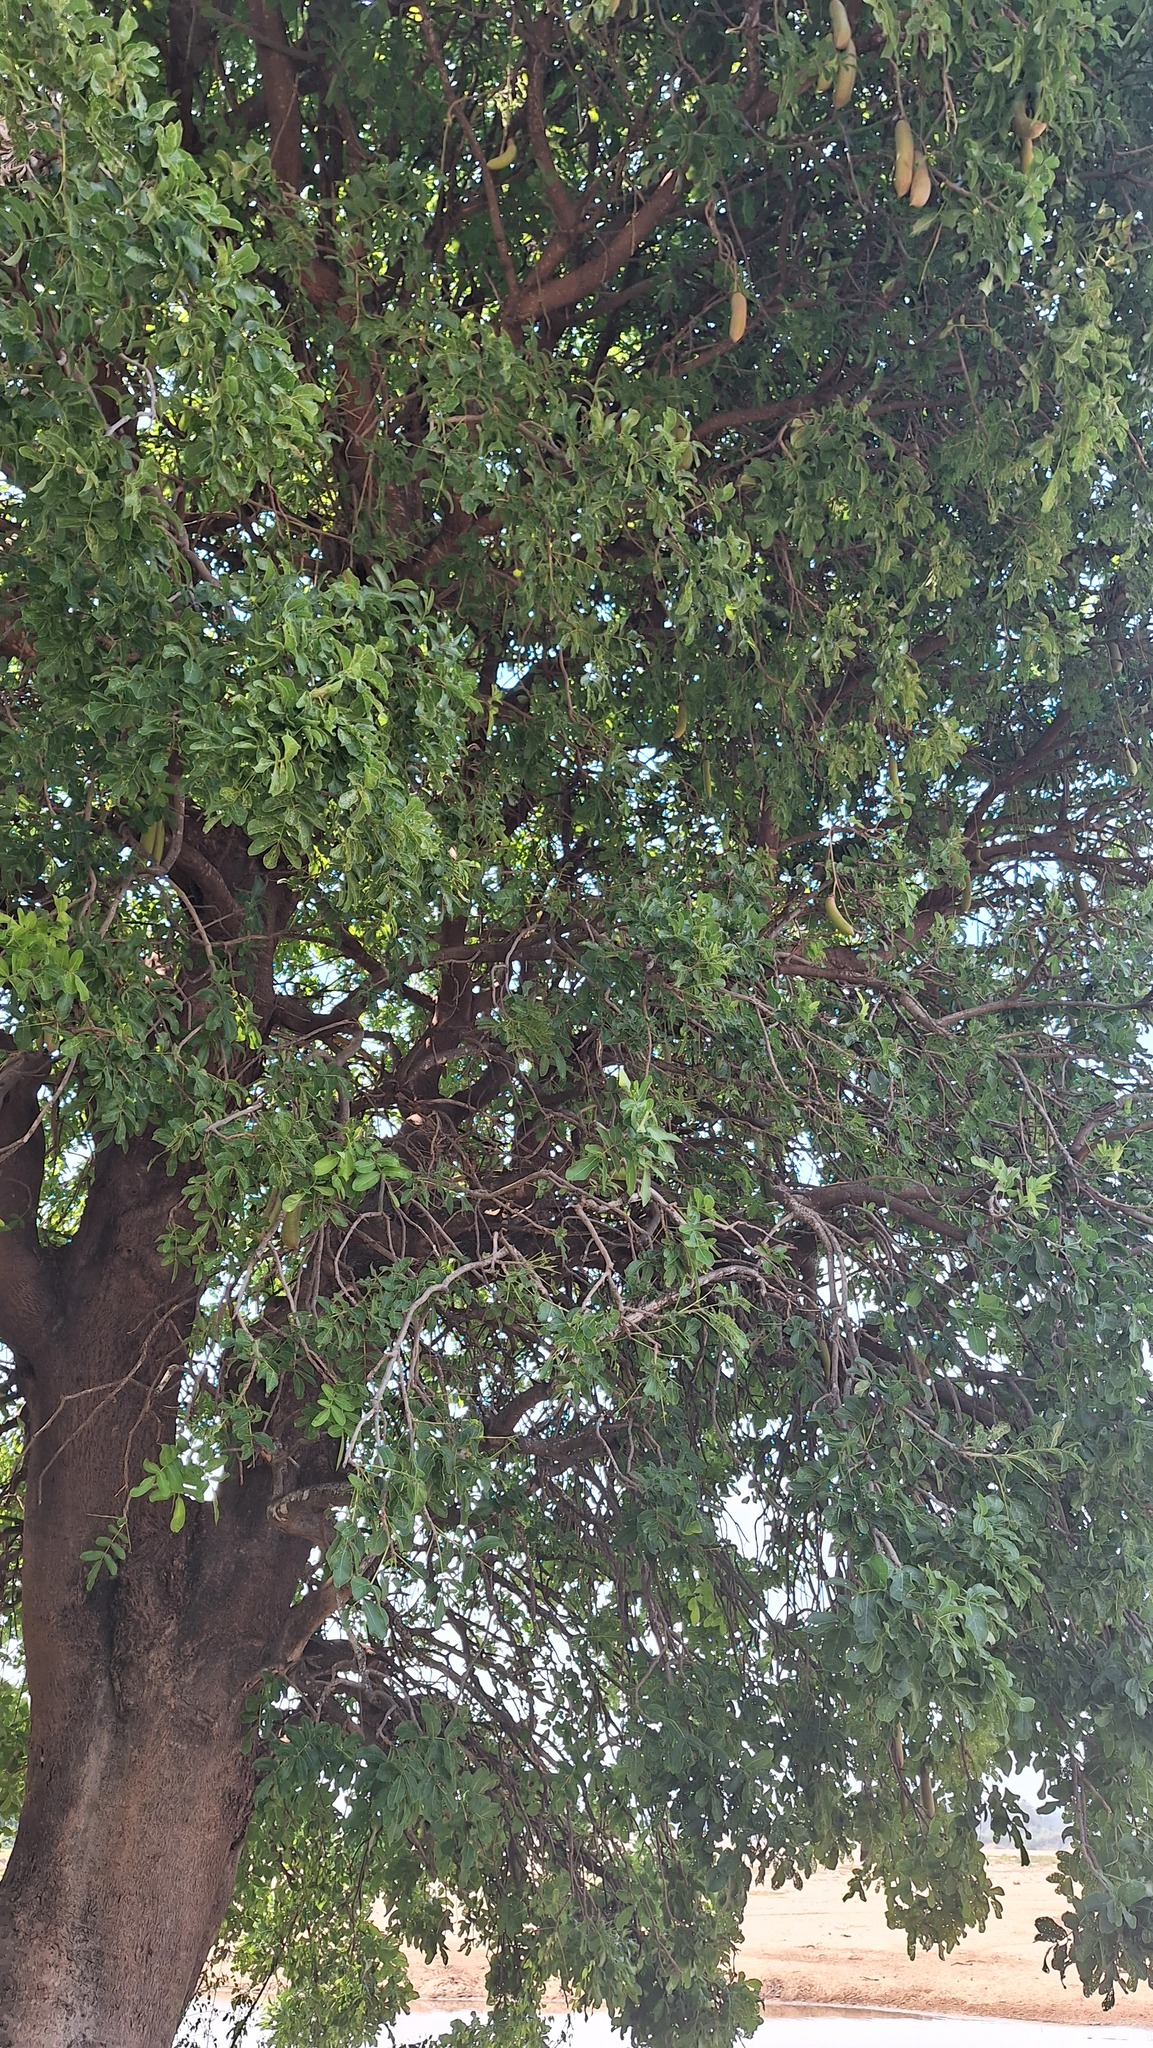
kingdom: Plantae
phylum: Tracheophyta
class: Magnoliopsida
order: Lamiales
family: Bignoniaceae
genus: Kigelia
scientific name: Kigelia africana
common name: Sausage tree
